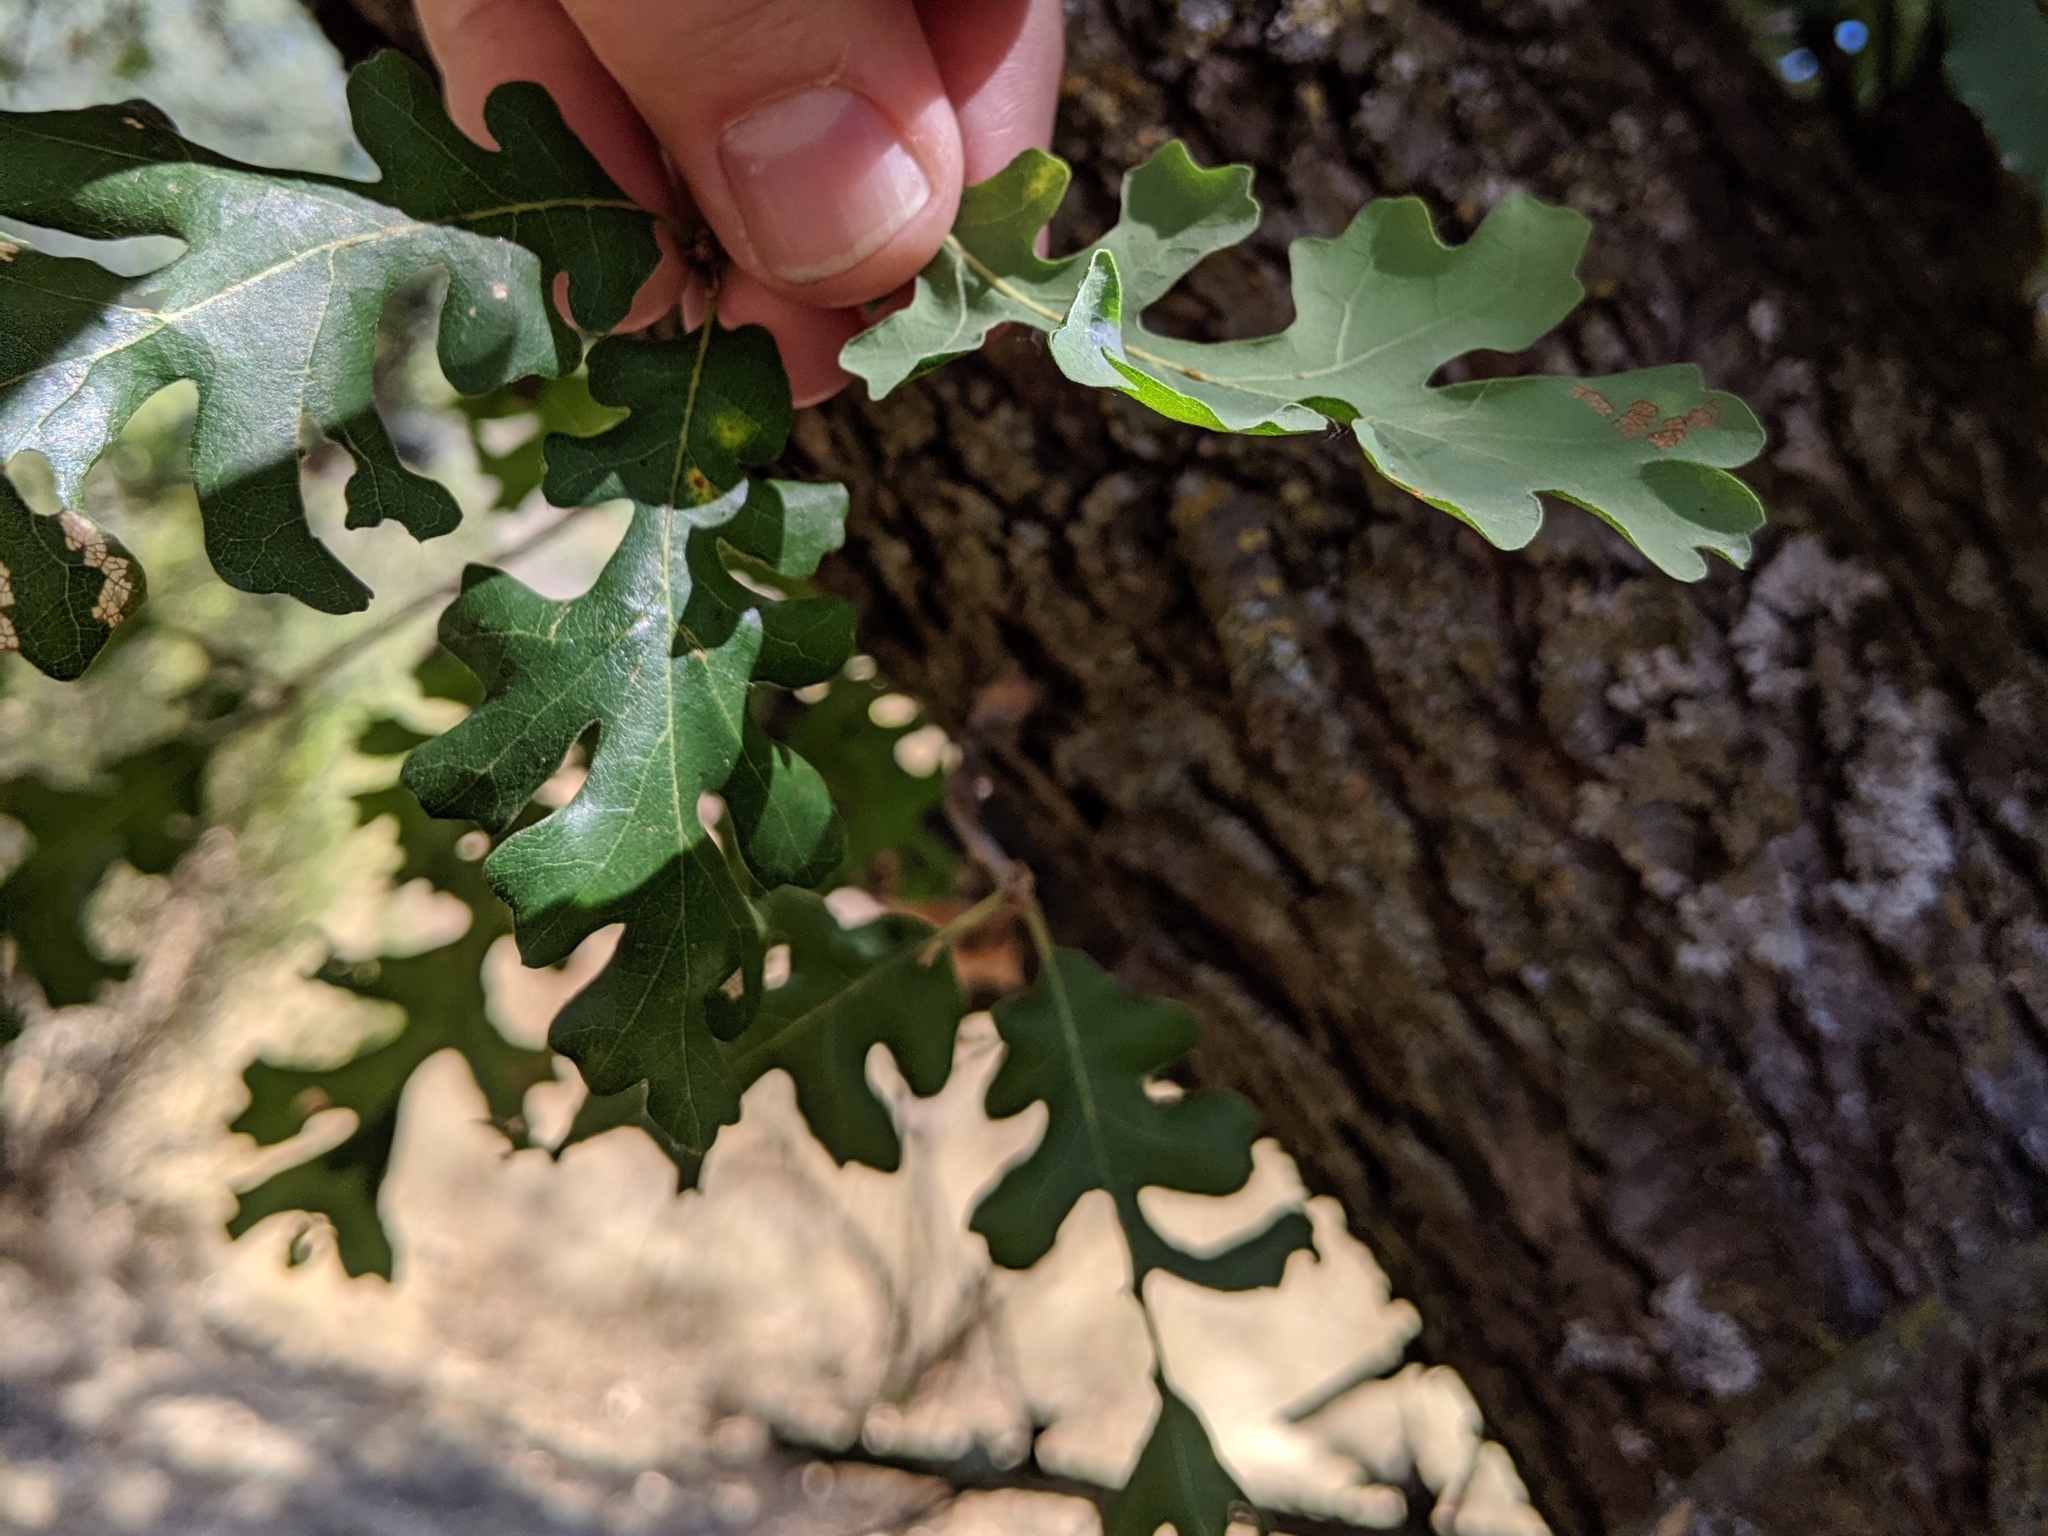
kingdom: Plantae
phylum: Tracheophyta
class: Magnoliopsida
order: Fagales
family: Fagaceae
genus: Quercus
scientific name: Quercus lobata
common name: Valley oak
